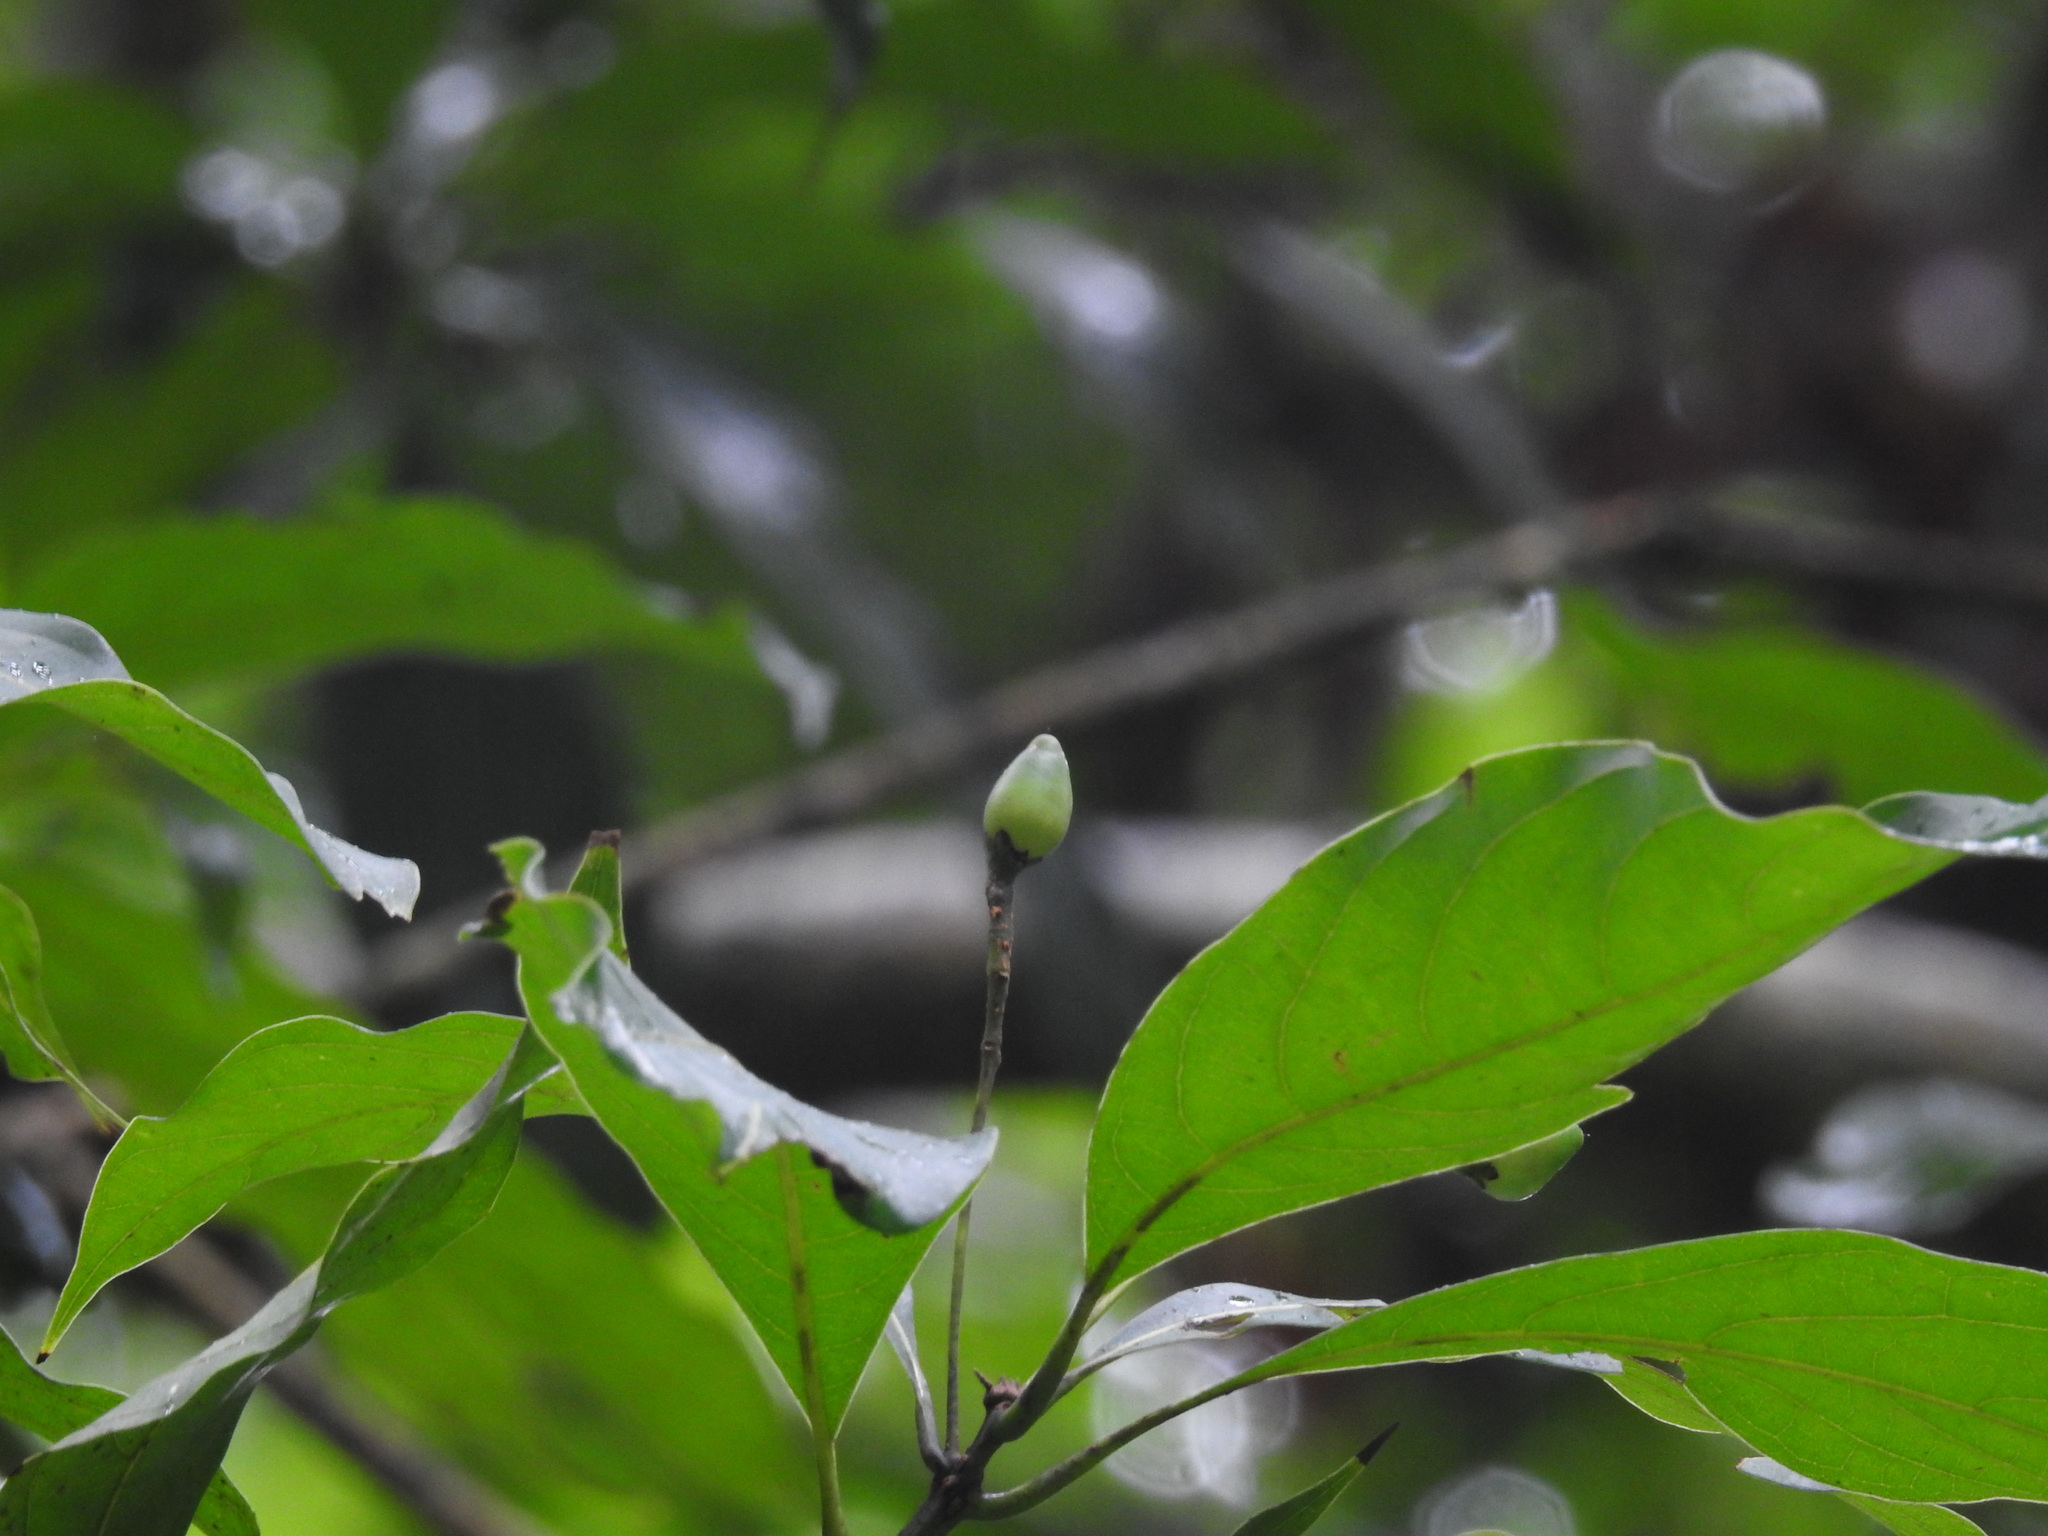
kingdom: Plantae
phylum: Tracheophyta
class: Magnoliopsida
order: Laurales
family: Lauraceae
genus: Phoebe
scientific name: Phoebe lanceolata
